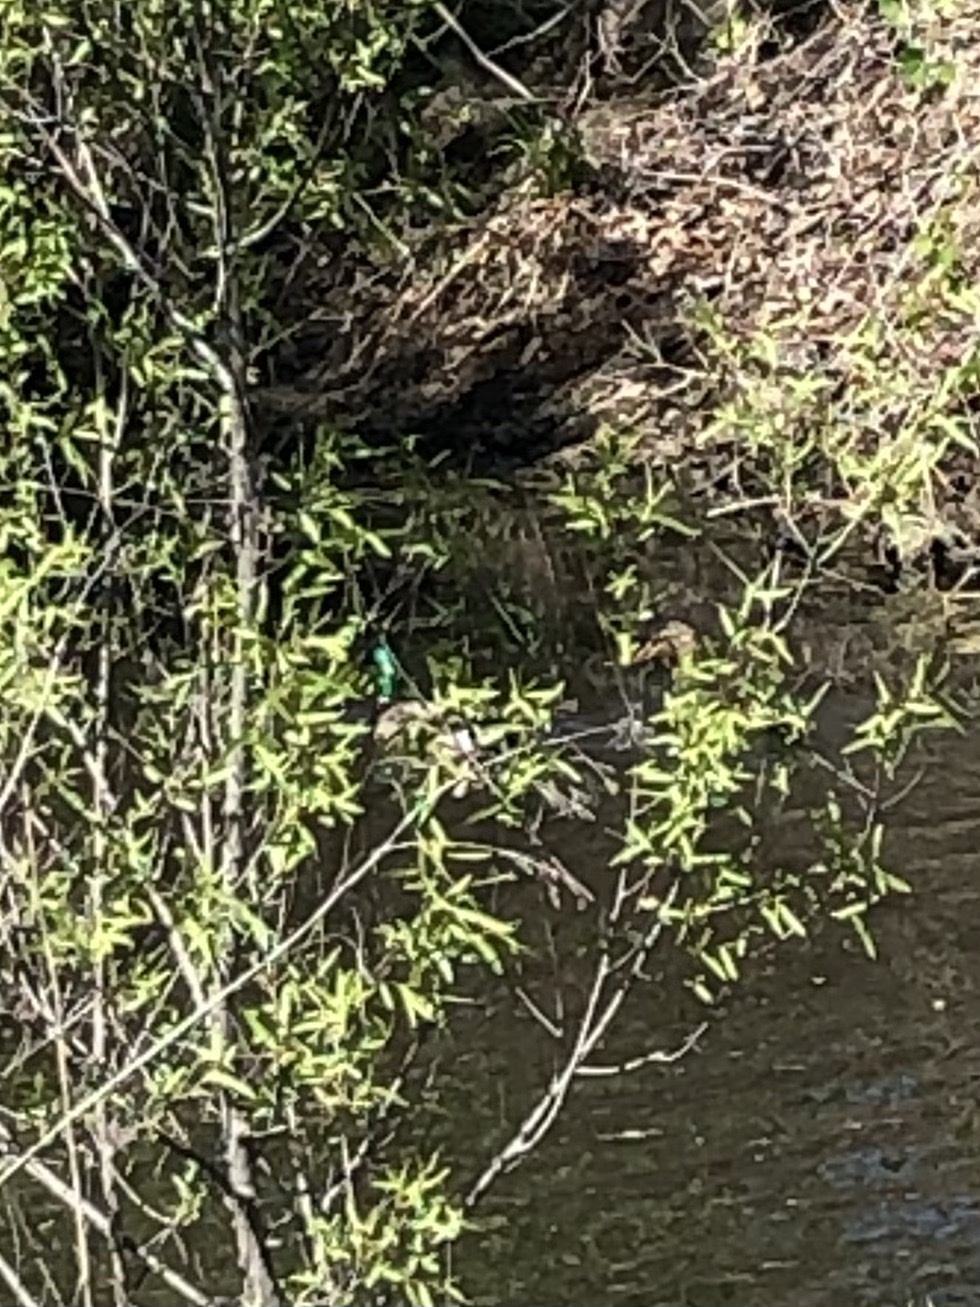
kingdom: Animalia
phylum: Chordata
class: Aves
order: Anseriformes
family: Anatidae
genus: Anas
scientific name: Anas platyrhynchos
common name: Mallard
